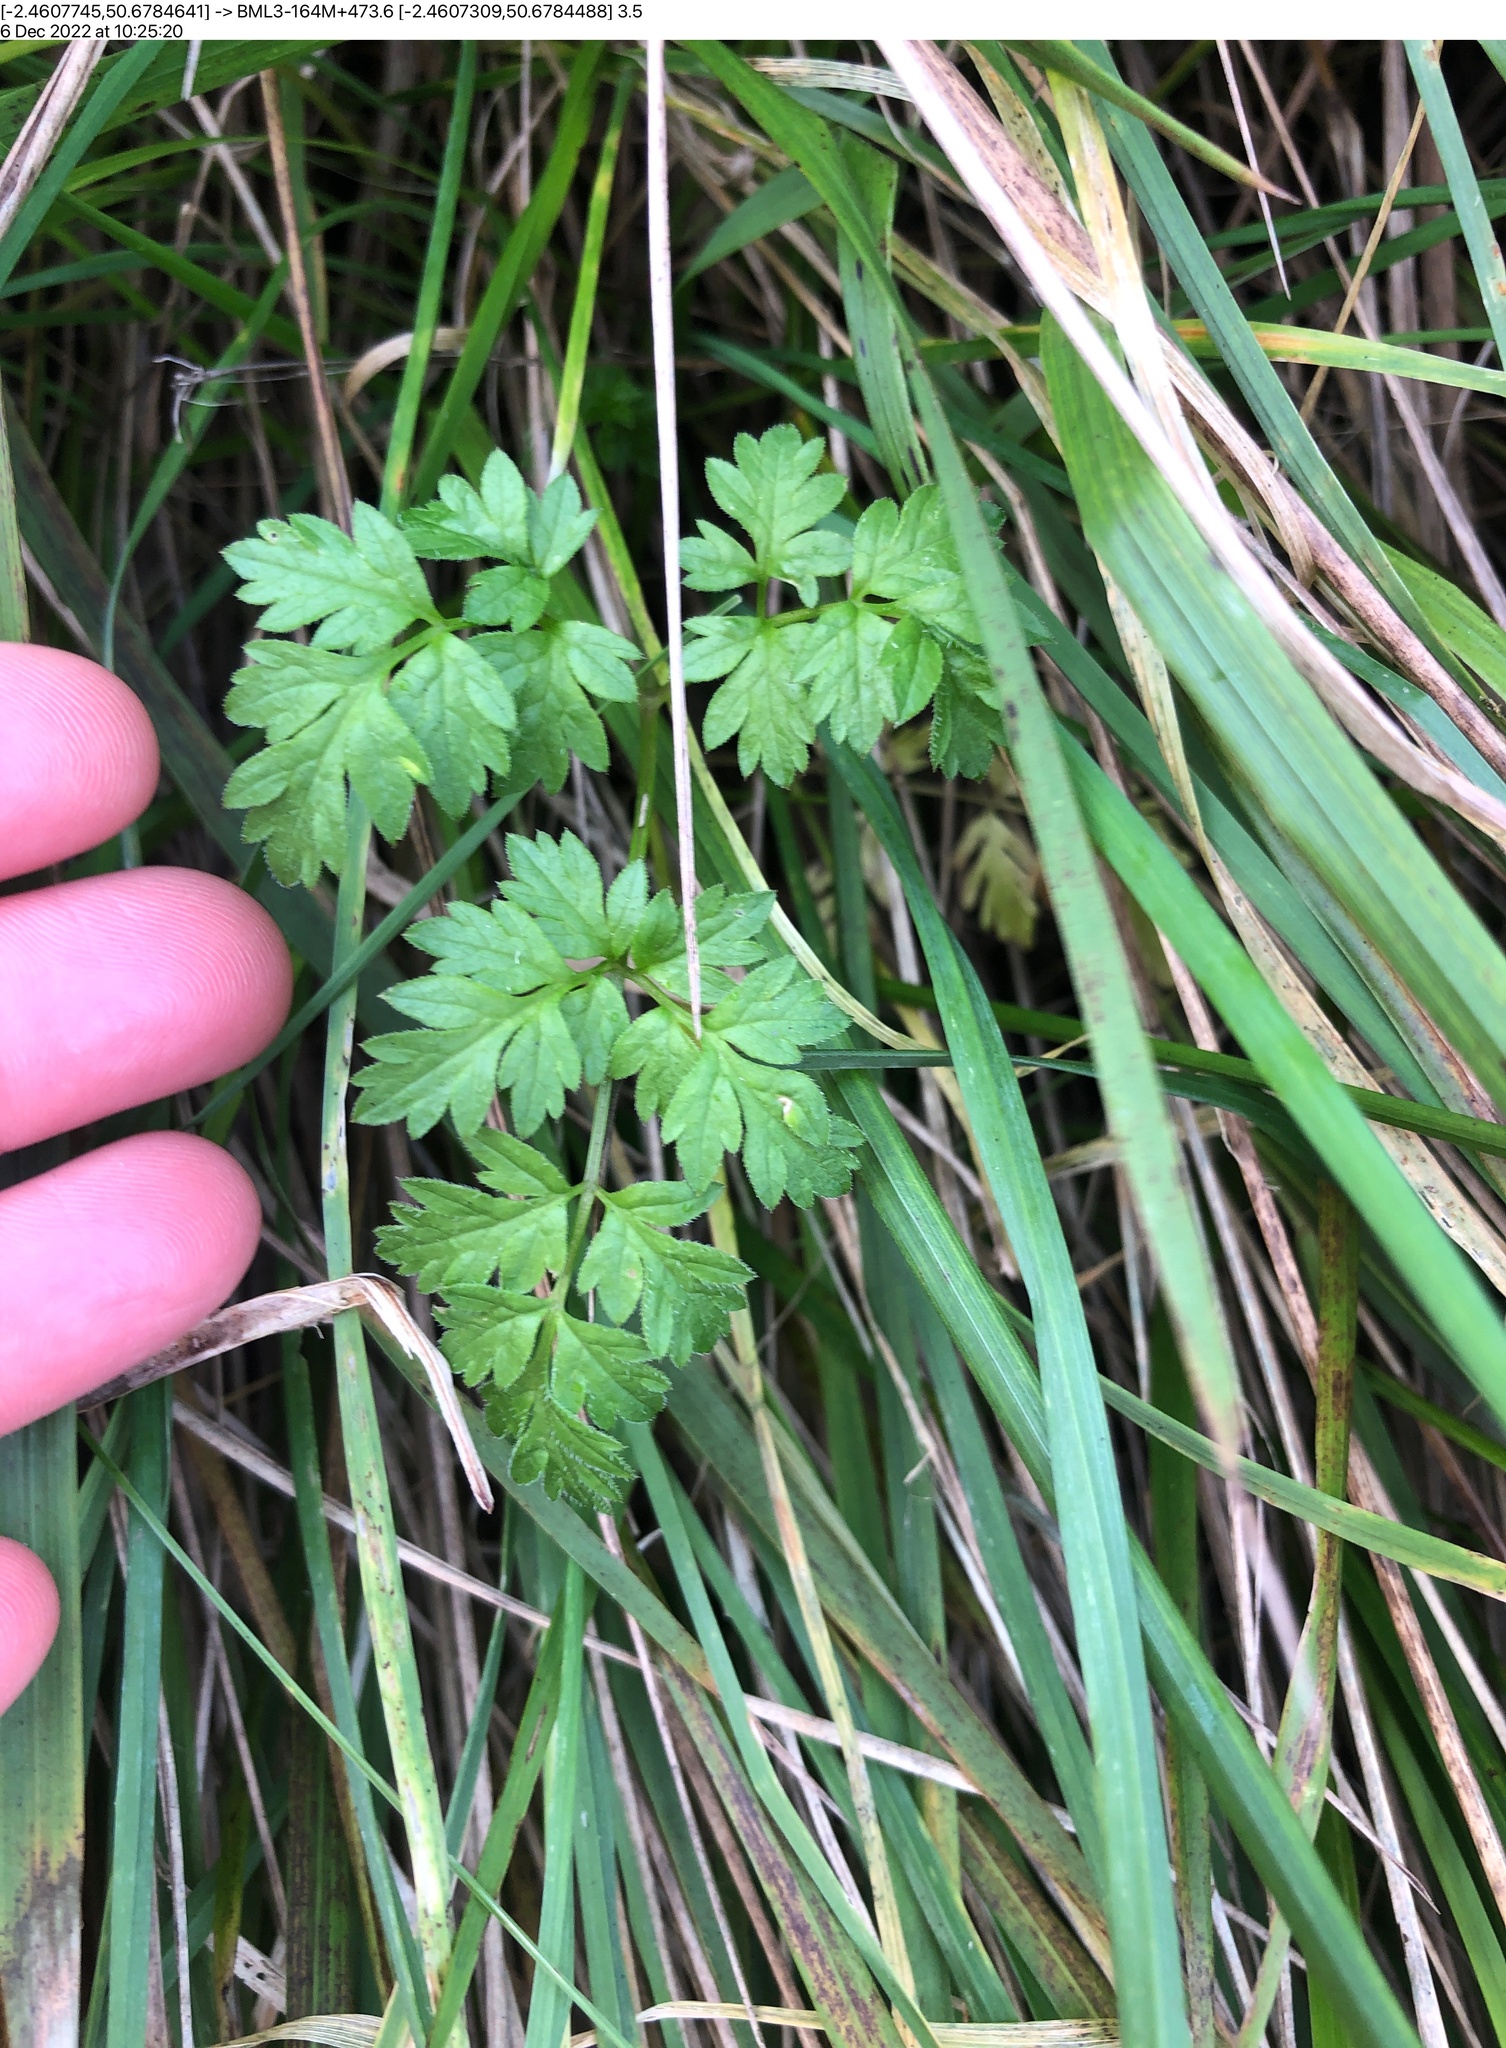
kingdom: Plantae
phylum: Tracheophyta
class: Magnoliopsida
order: Apiales
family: Apiaceae
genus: Anthriscus
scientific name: Anthriscus sylvestris
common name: Cow parsley
